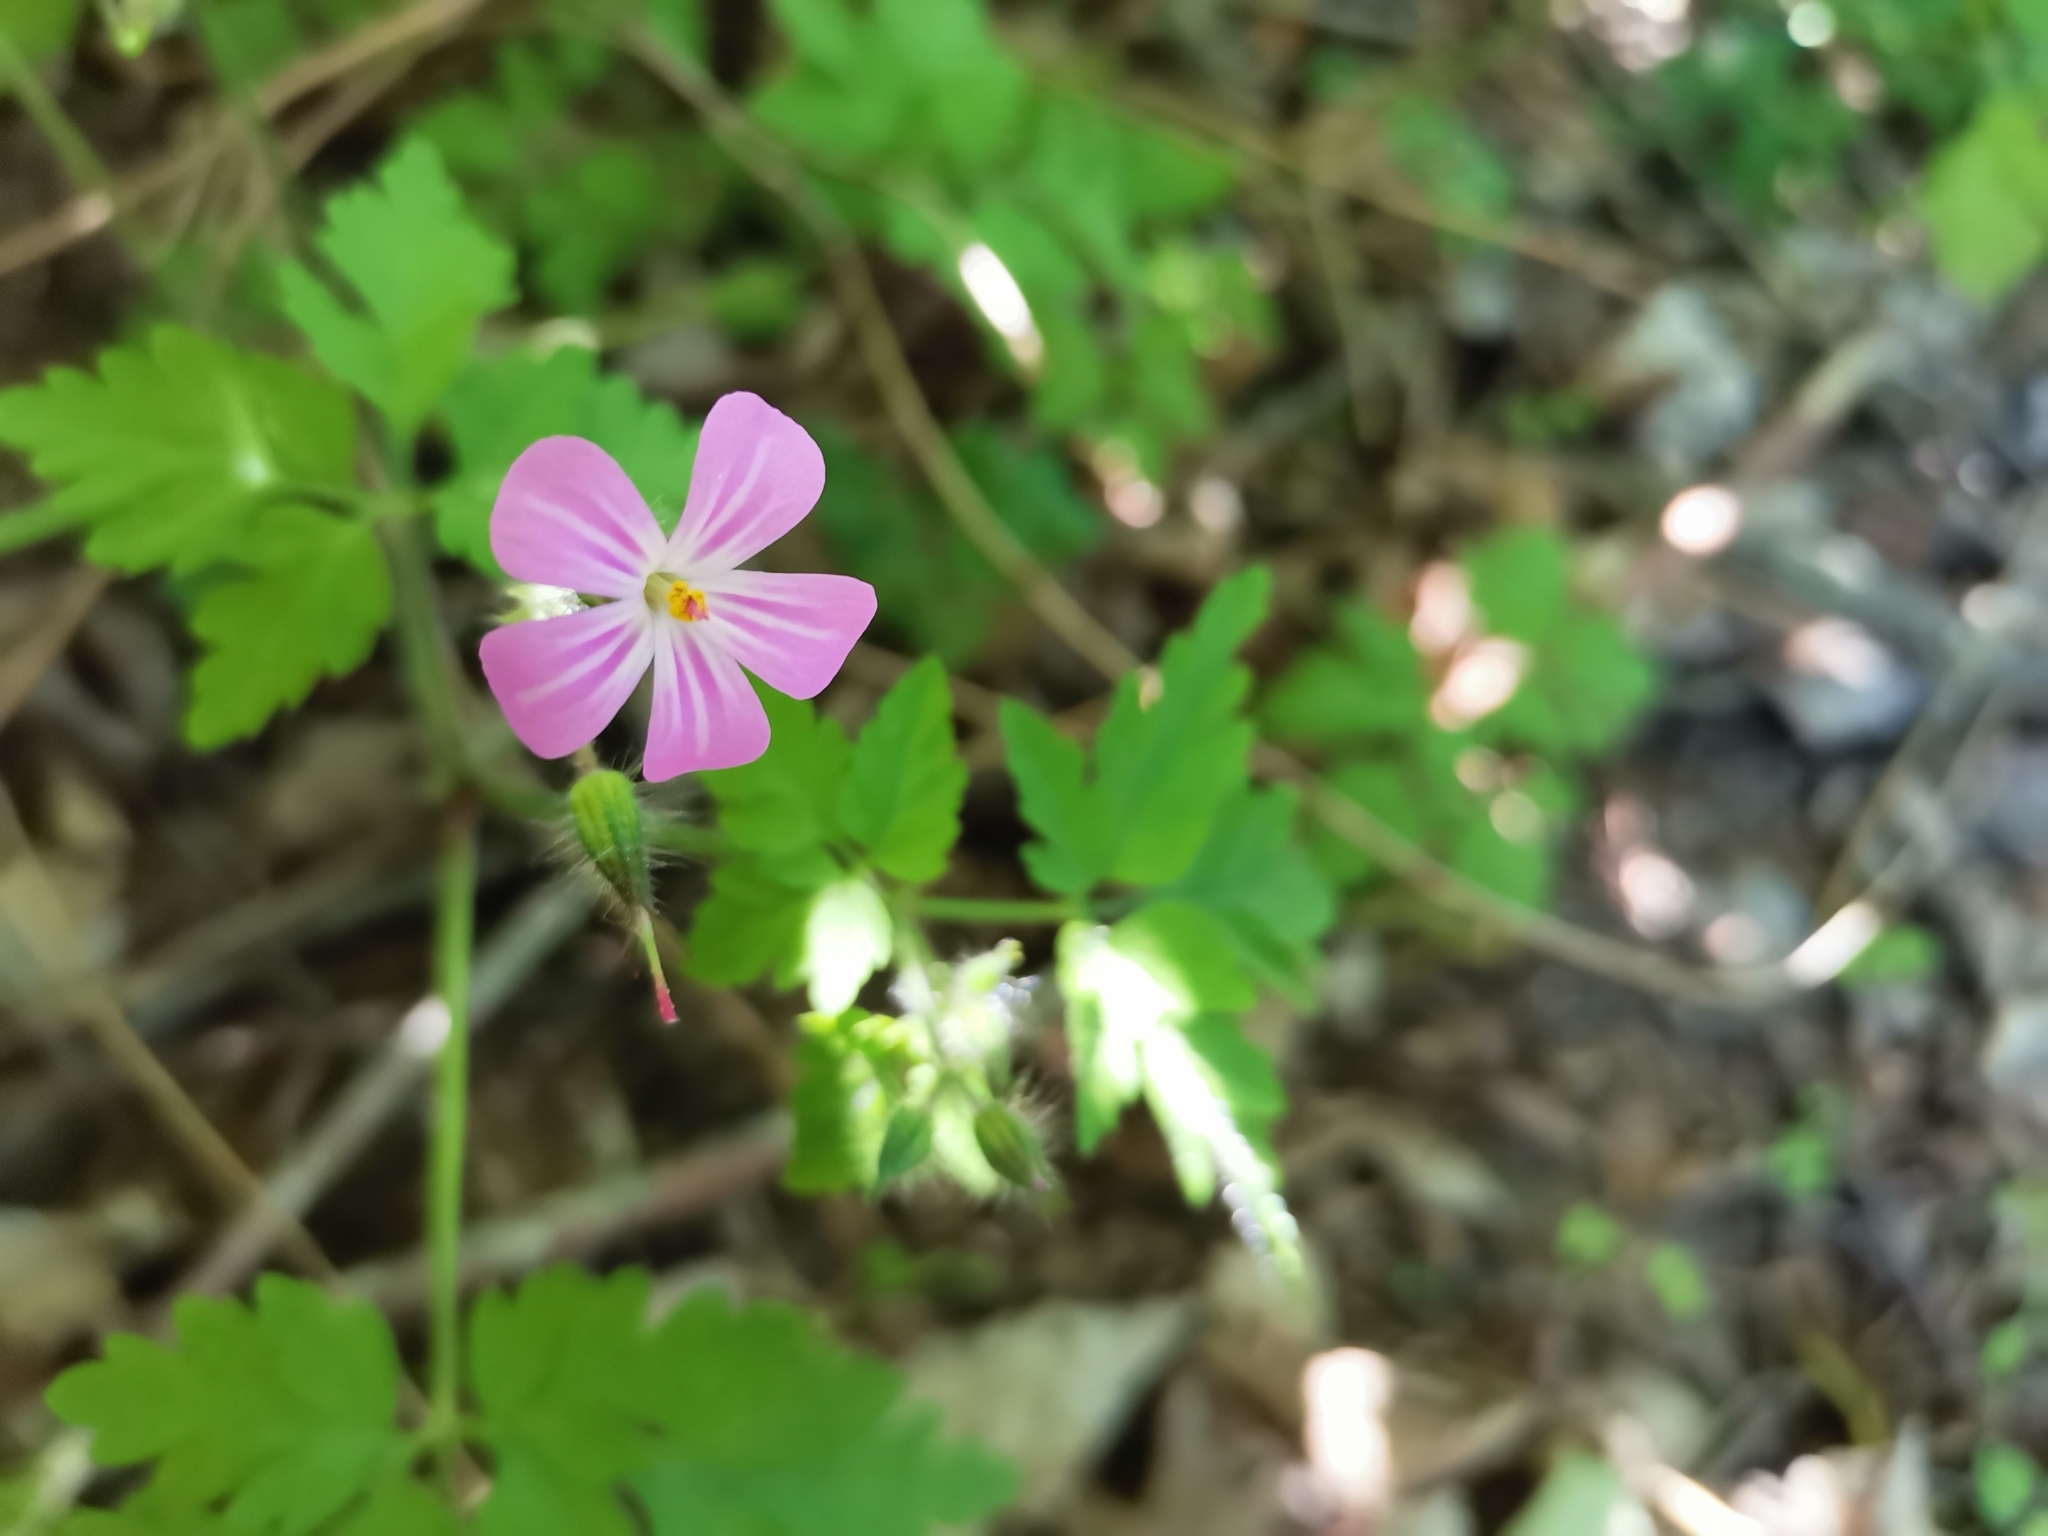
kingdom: Plantae
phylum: Tracheophyta
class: Magnoliopsida
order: Geraniales
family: Geraniaceae
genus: Geranium
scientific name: Geranium robertianum
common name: Herb-robert
